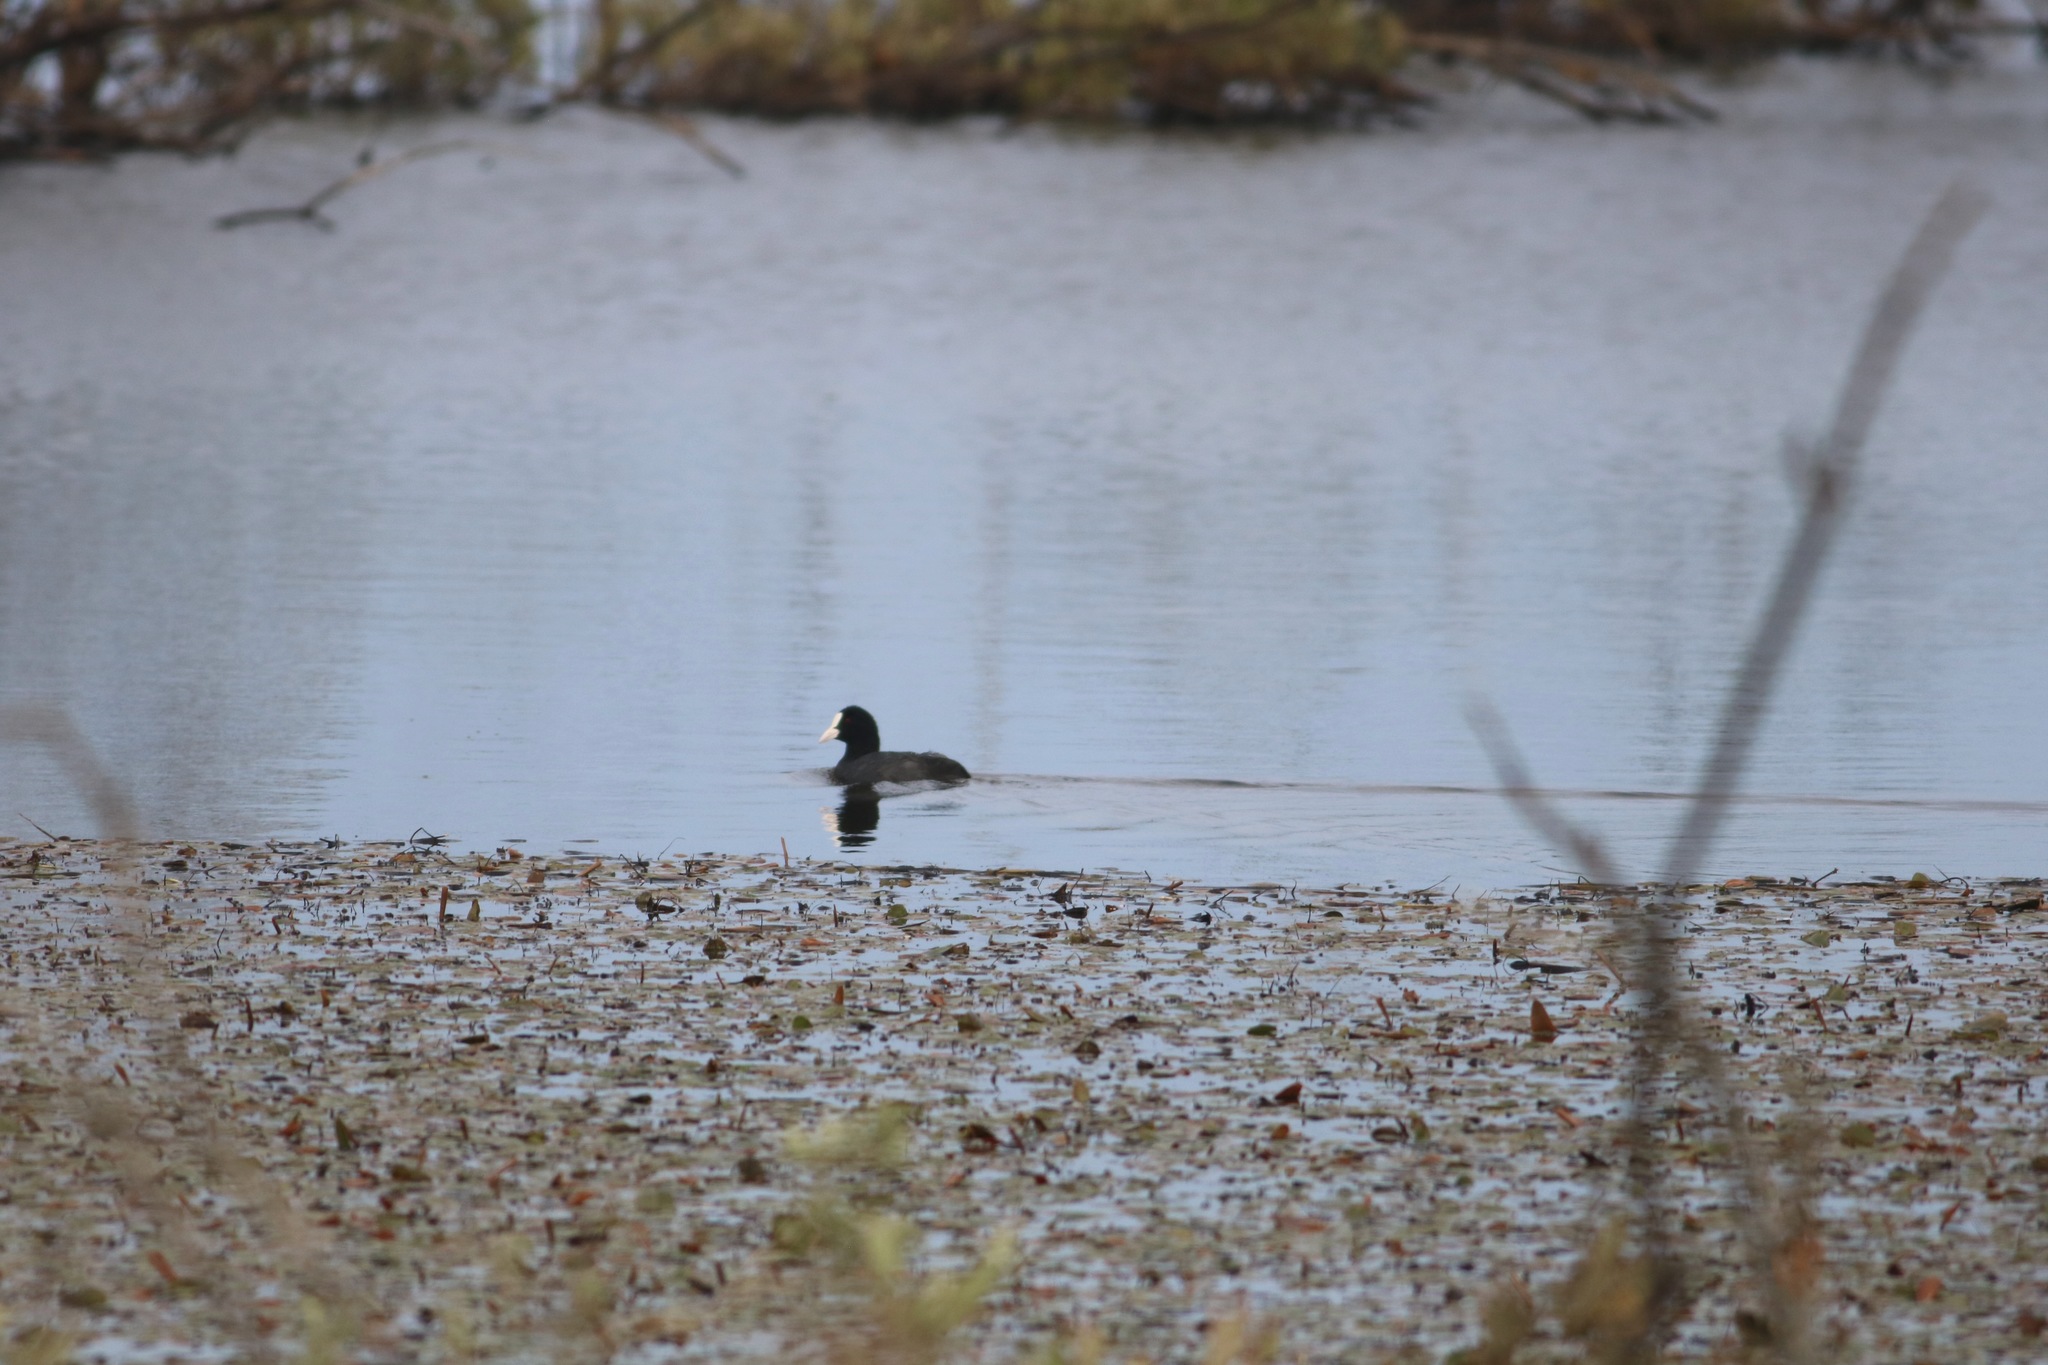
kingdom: Animalia
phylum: Chordata
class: Aves
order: Gruiformes
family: Rallidae
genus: Fulica
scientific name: Fulica atra
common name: Eurasian coot
